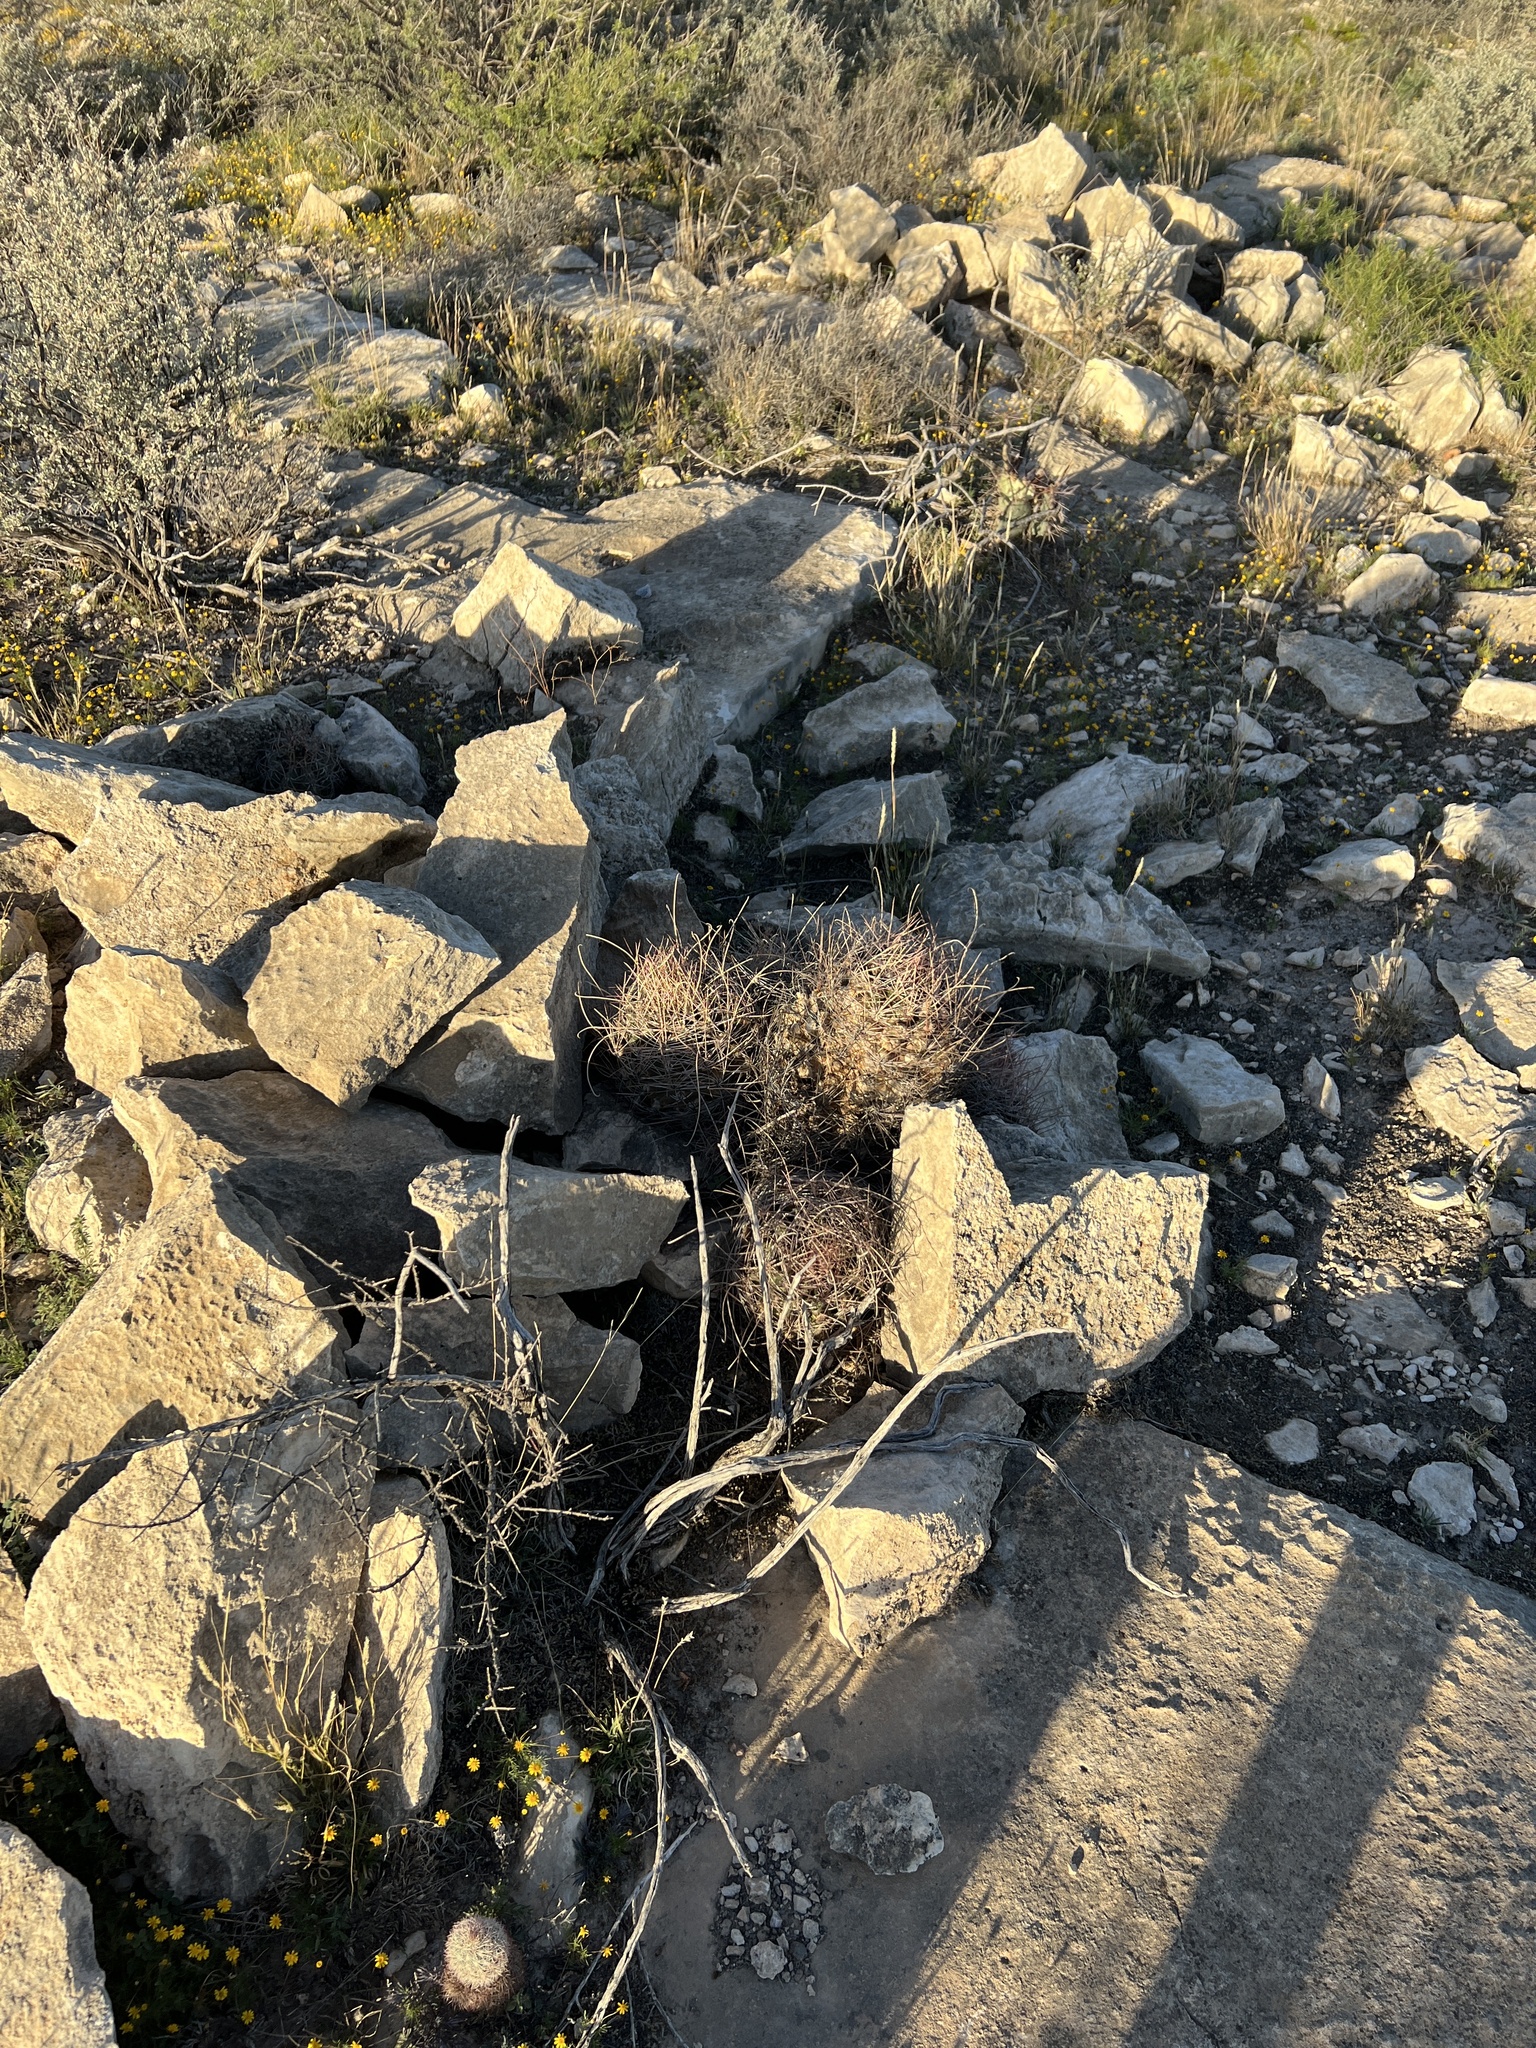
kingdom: Plantae
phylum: Tracheophyta
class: Magnoliopsida
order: Caryophyllales
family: Cactaceae
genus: Bisnaga
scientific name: Bisnaga hamatacantha
